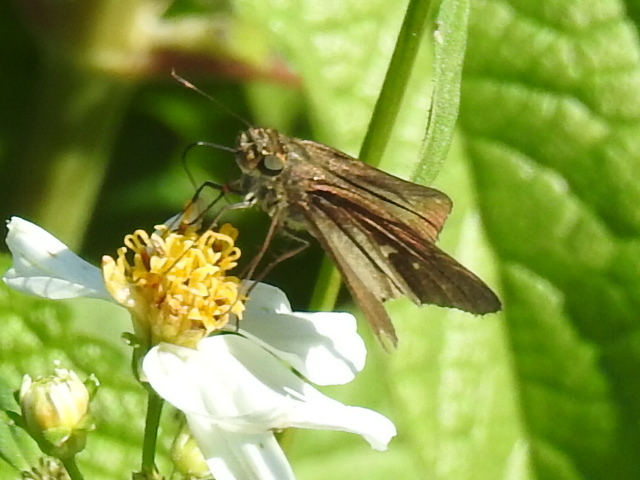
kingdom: Animalia
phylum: Arthropoda
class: Insecta
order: Lepidoptera
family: Hesperiidae
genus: Panoquina
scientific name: Panoquina ocola
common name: Ocola skipper
